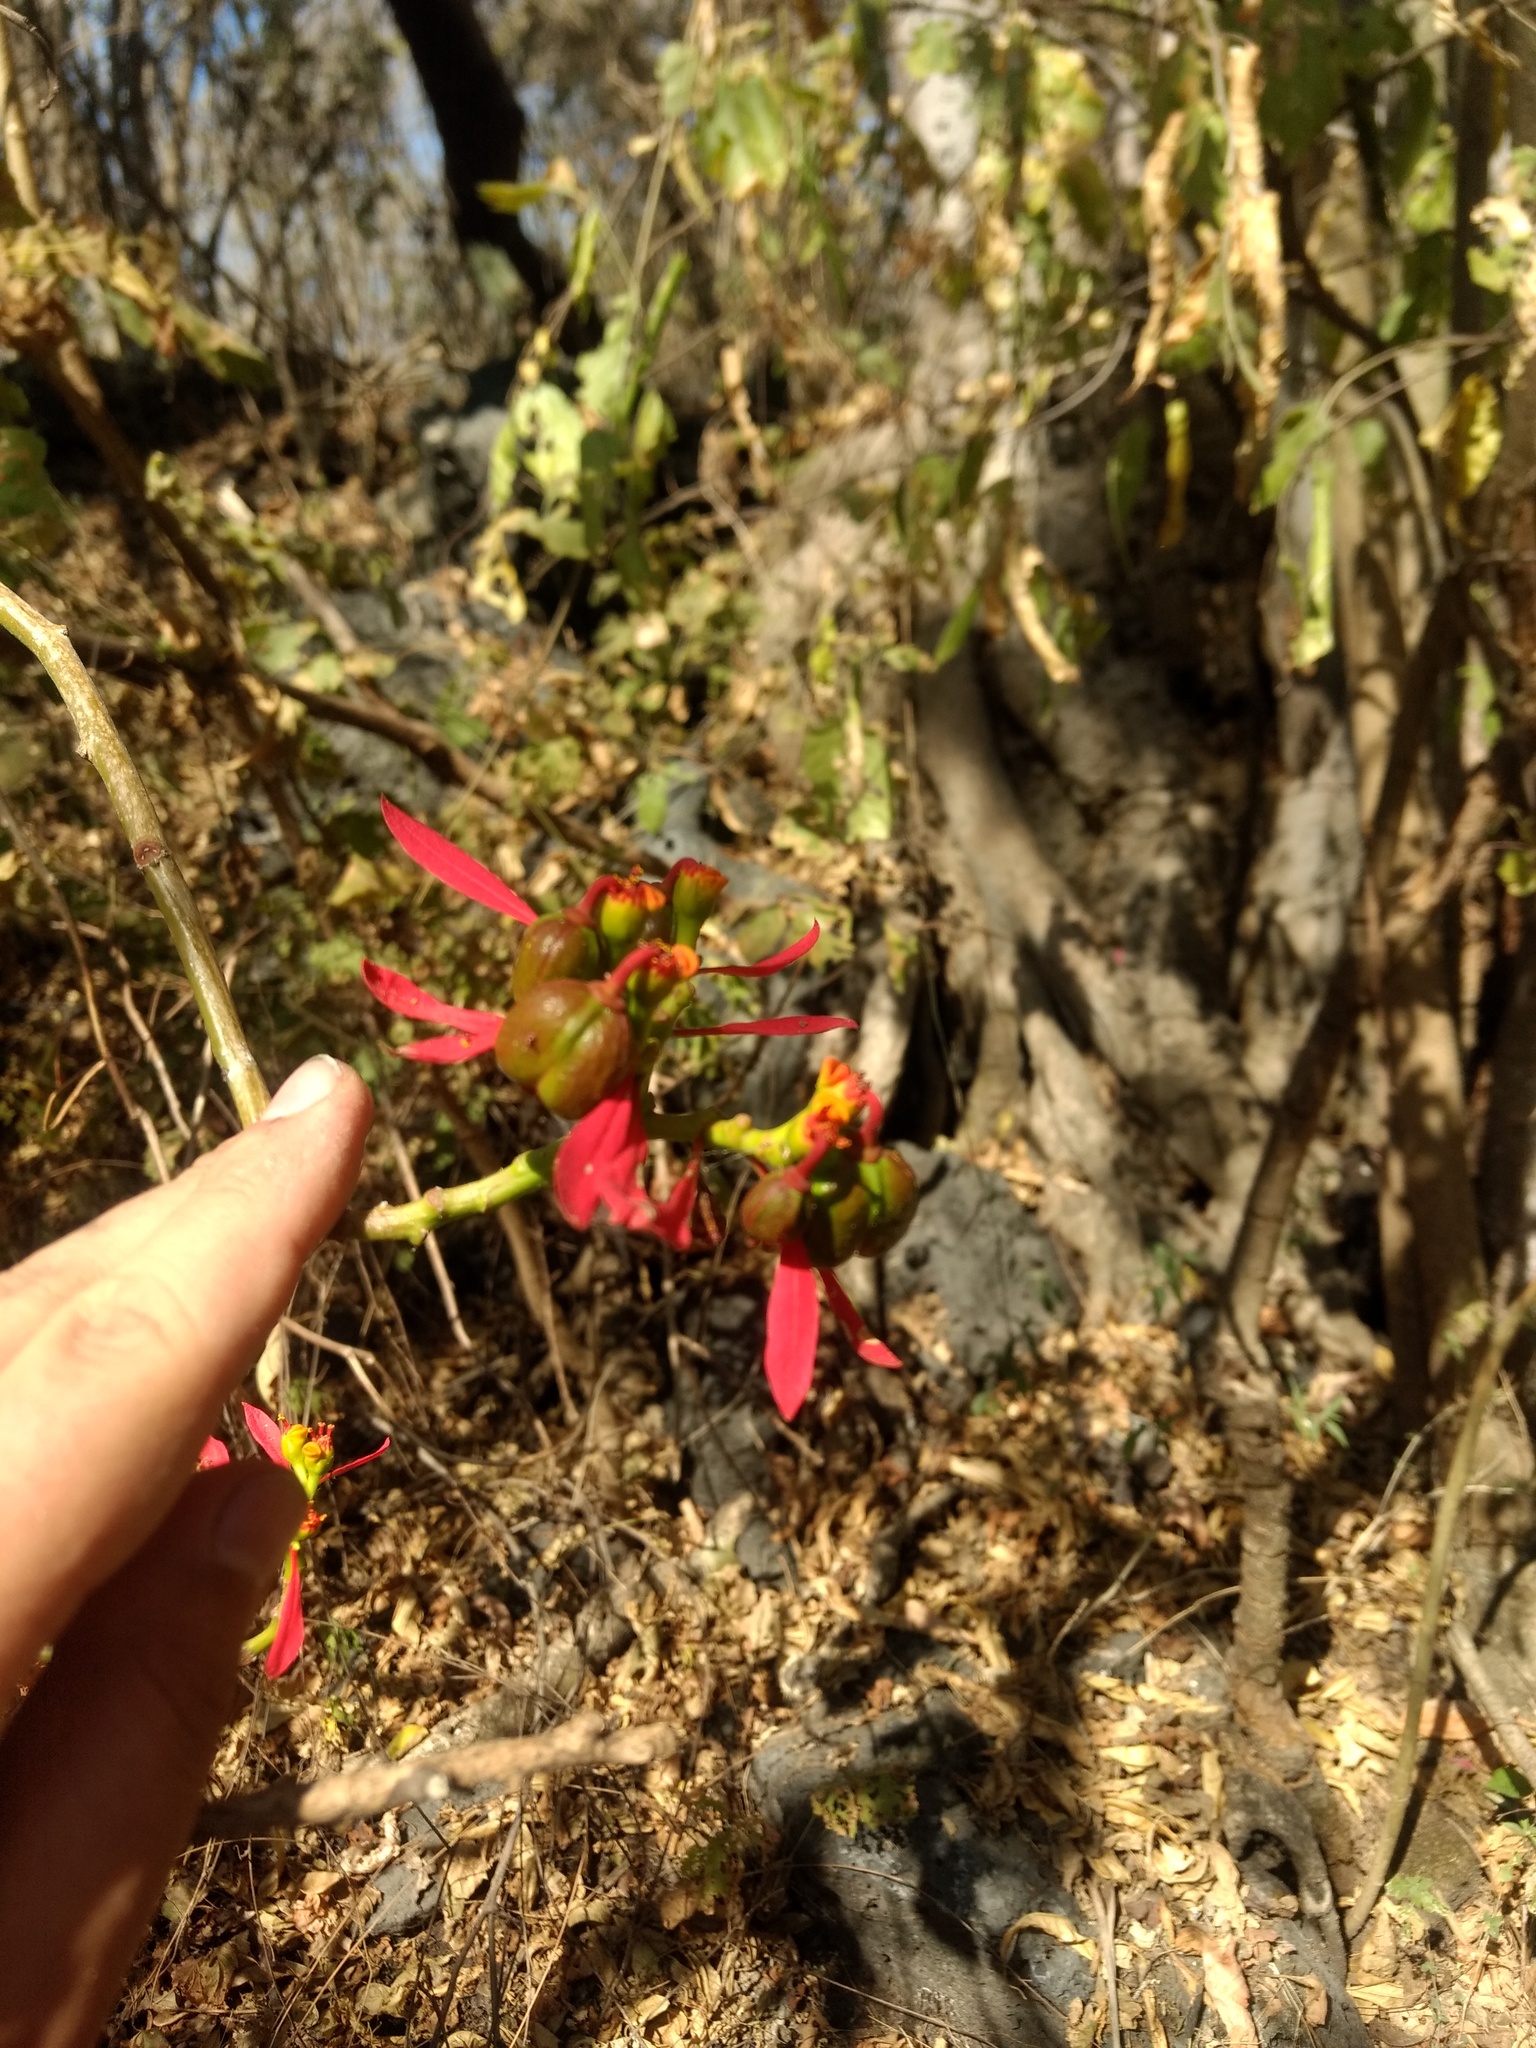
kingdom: Plantae
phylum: Tracheophyta
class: Magnoliopsida
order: Malpighiales
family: Euphorbiaceae
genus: Euphorbia
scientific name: Euphorbia pulcherrima
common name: Christmas-flower
